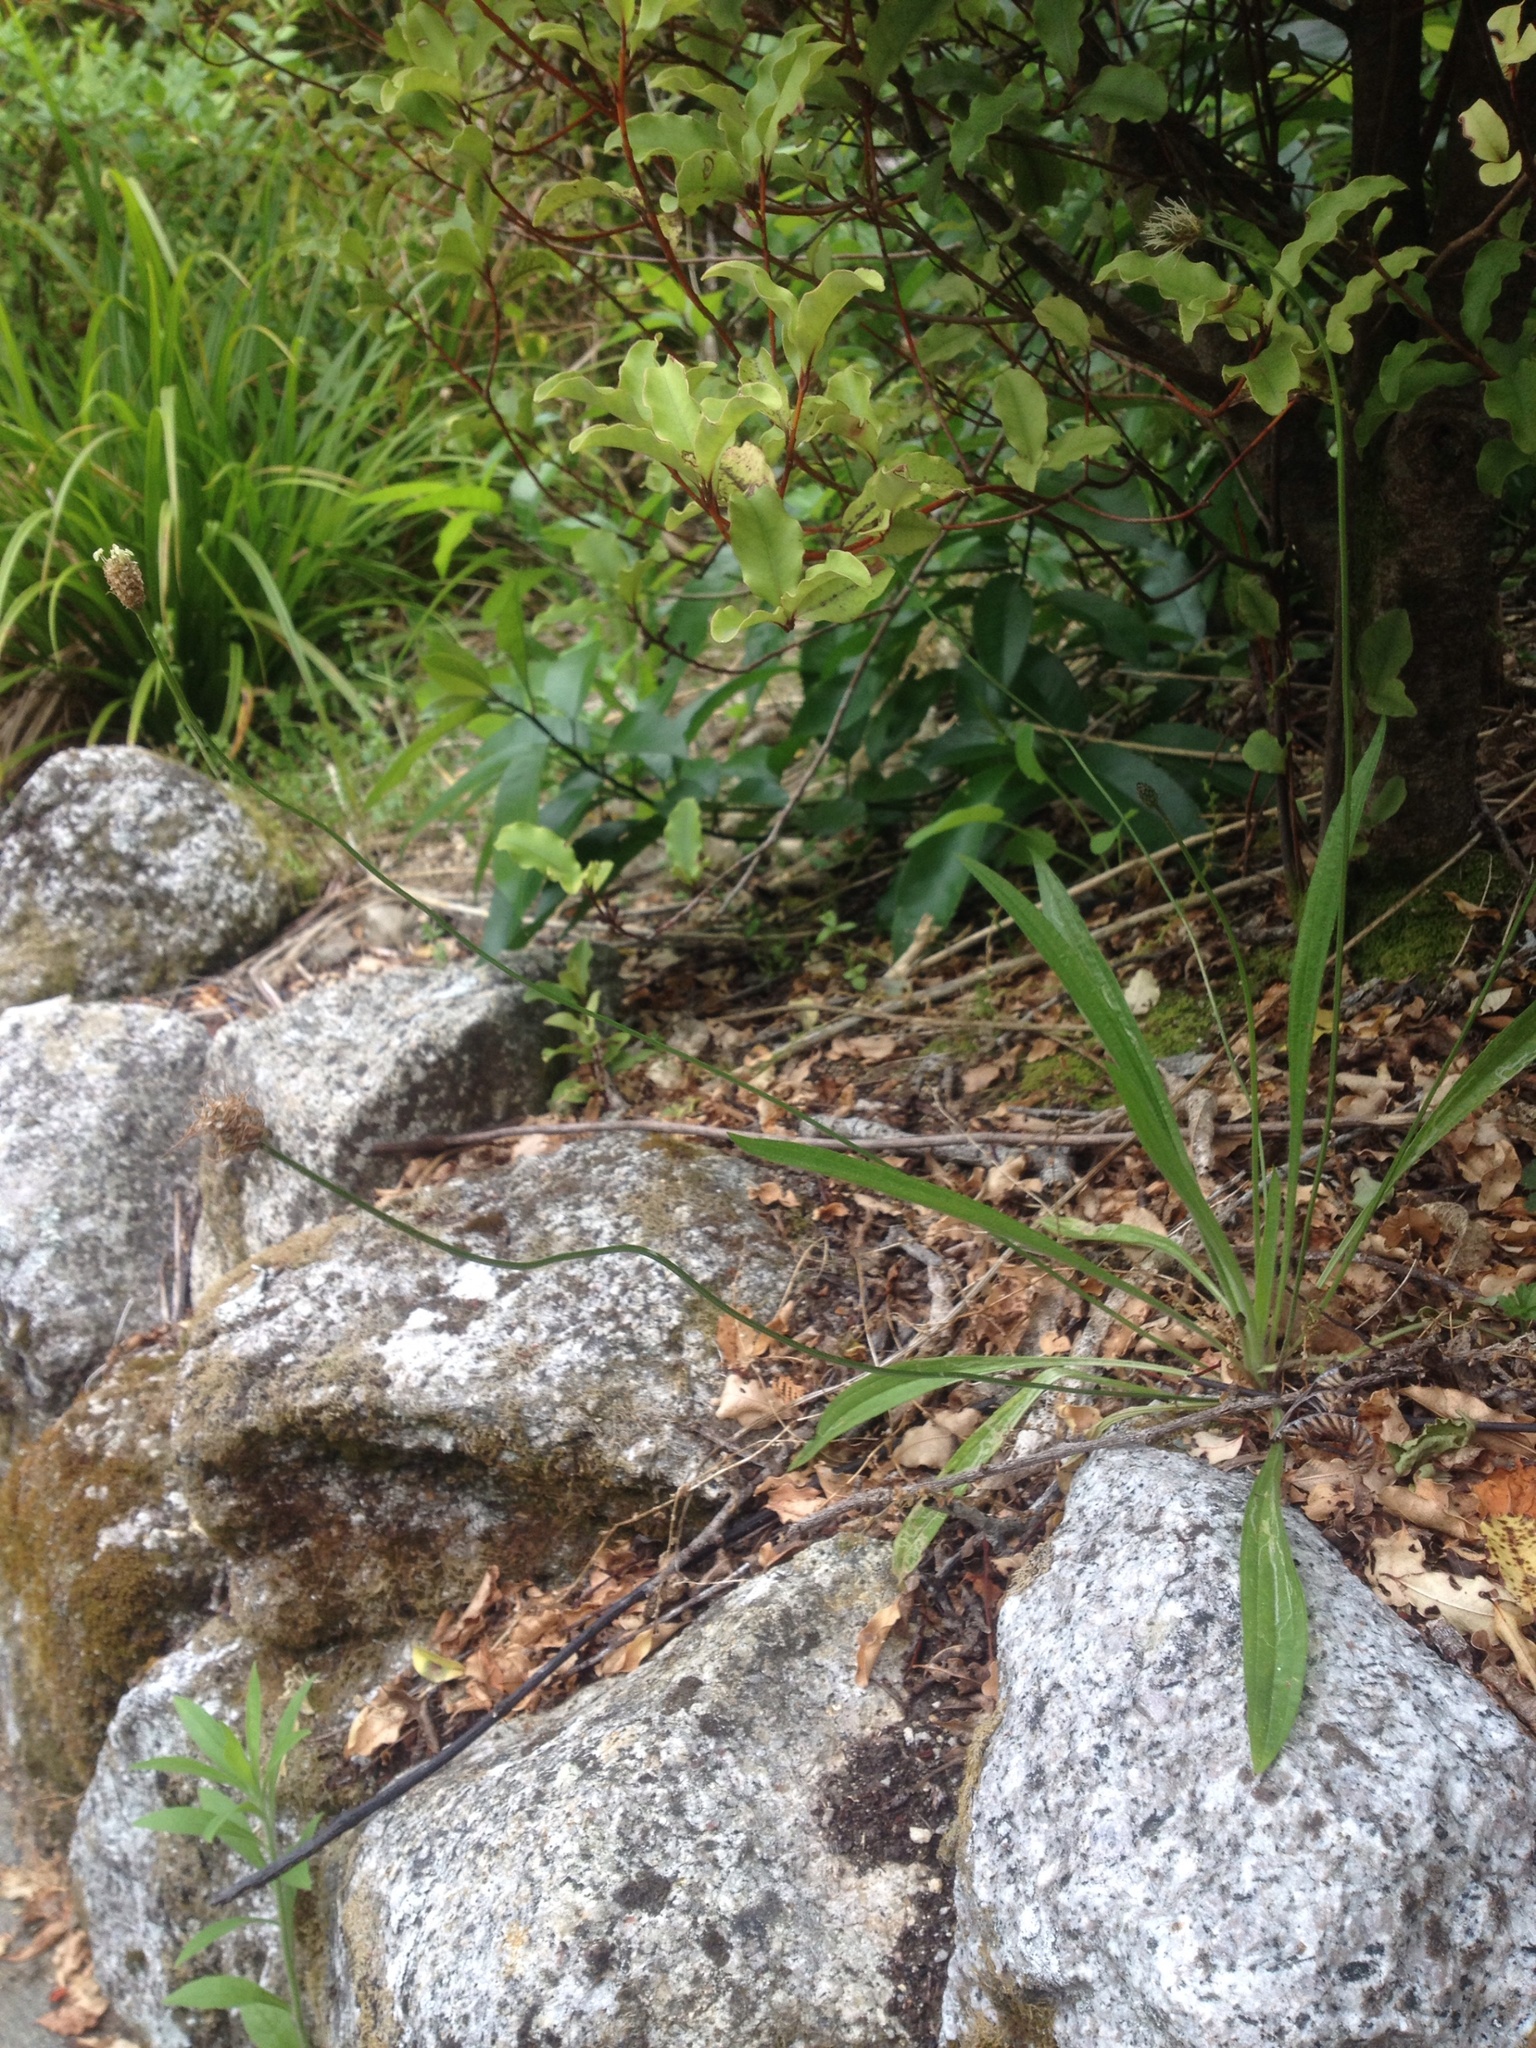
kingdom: Plantae
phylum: Tracheophyta
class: Magnoliopsida
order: Lamiales
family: Plantaginaceae
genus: Plantago
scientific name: Plantago lanceolata
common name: Ribwort plantain
